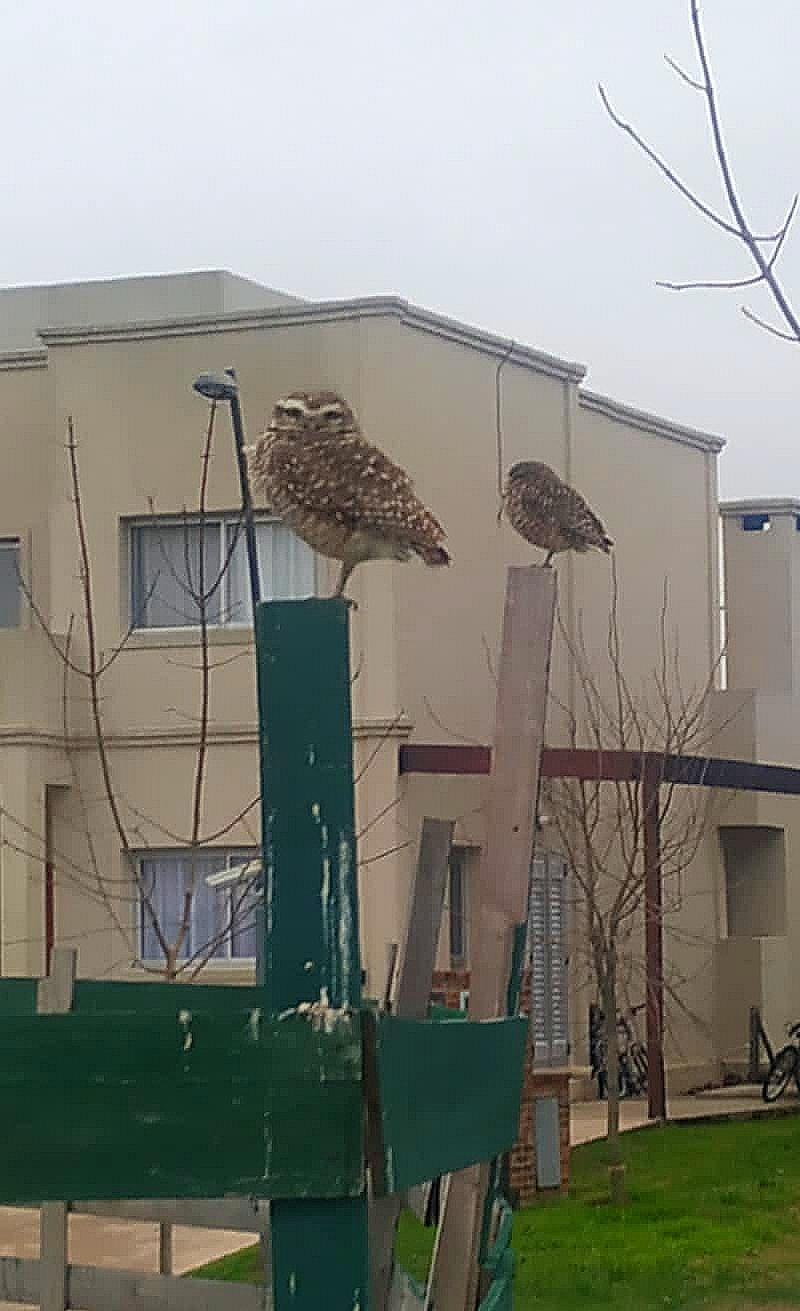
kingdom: Animalia
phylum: Chordata
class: Aves
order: Strigiformes
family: Strigidae
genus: Athene
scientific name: Athene cunicularia
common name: Burrowing owl
